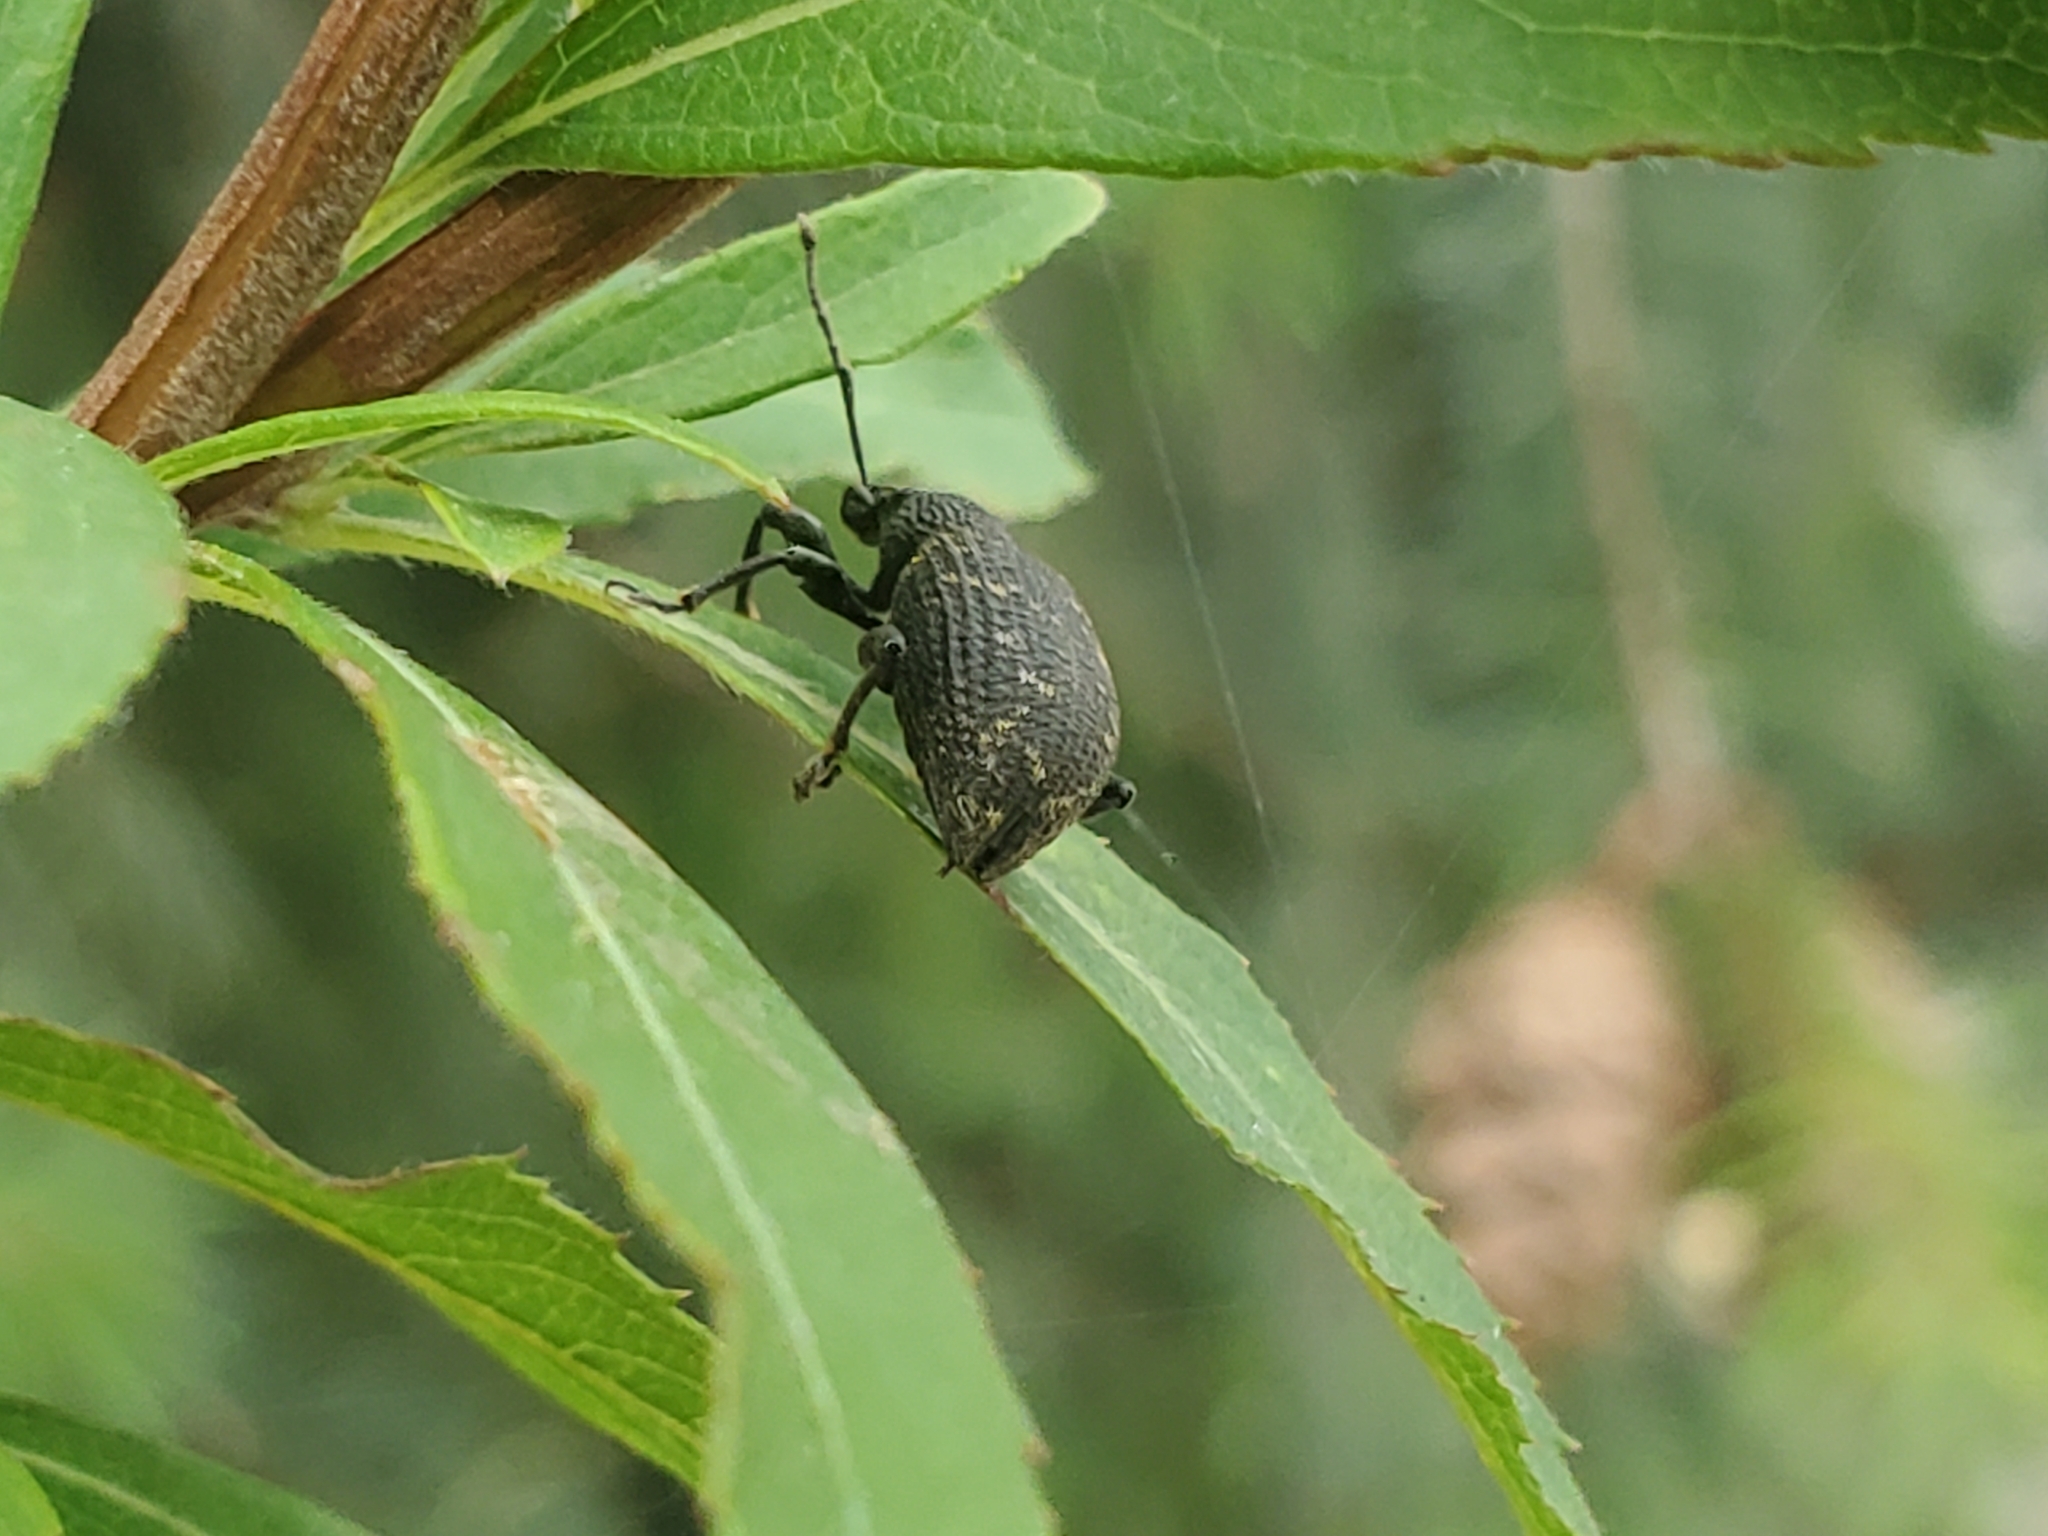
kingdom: Animalia
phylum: Arthropoda
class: Insecta
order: Coleoptera
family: Curculionidae
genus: Otiorhynchus
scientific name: Otiorhynchus sulcatus
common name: Black vine weevil
